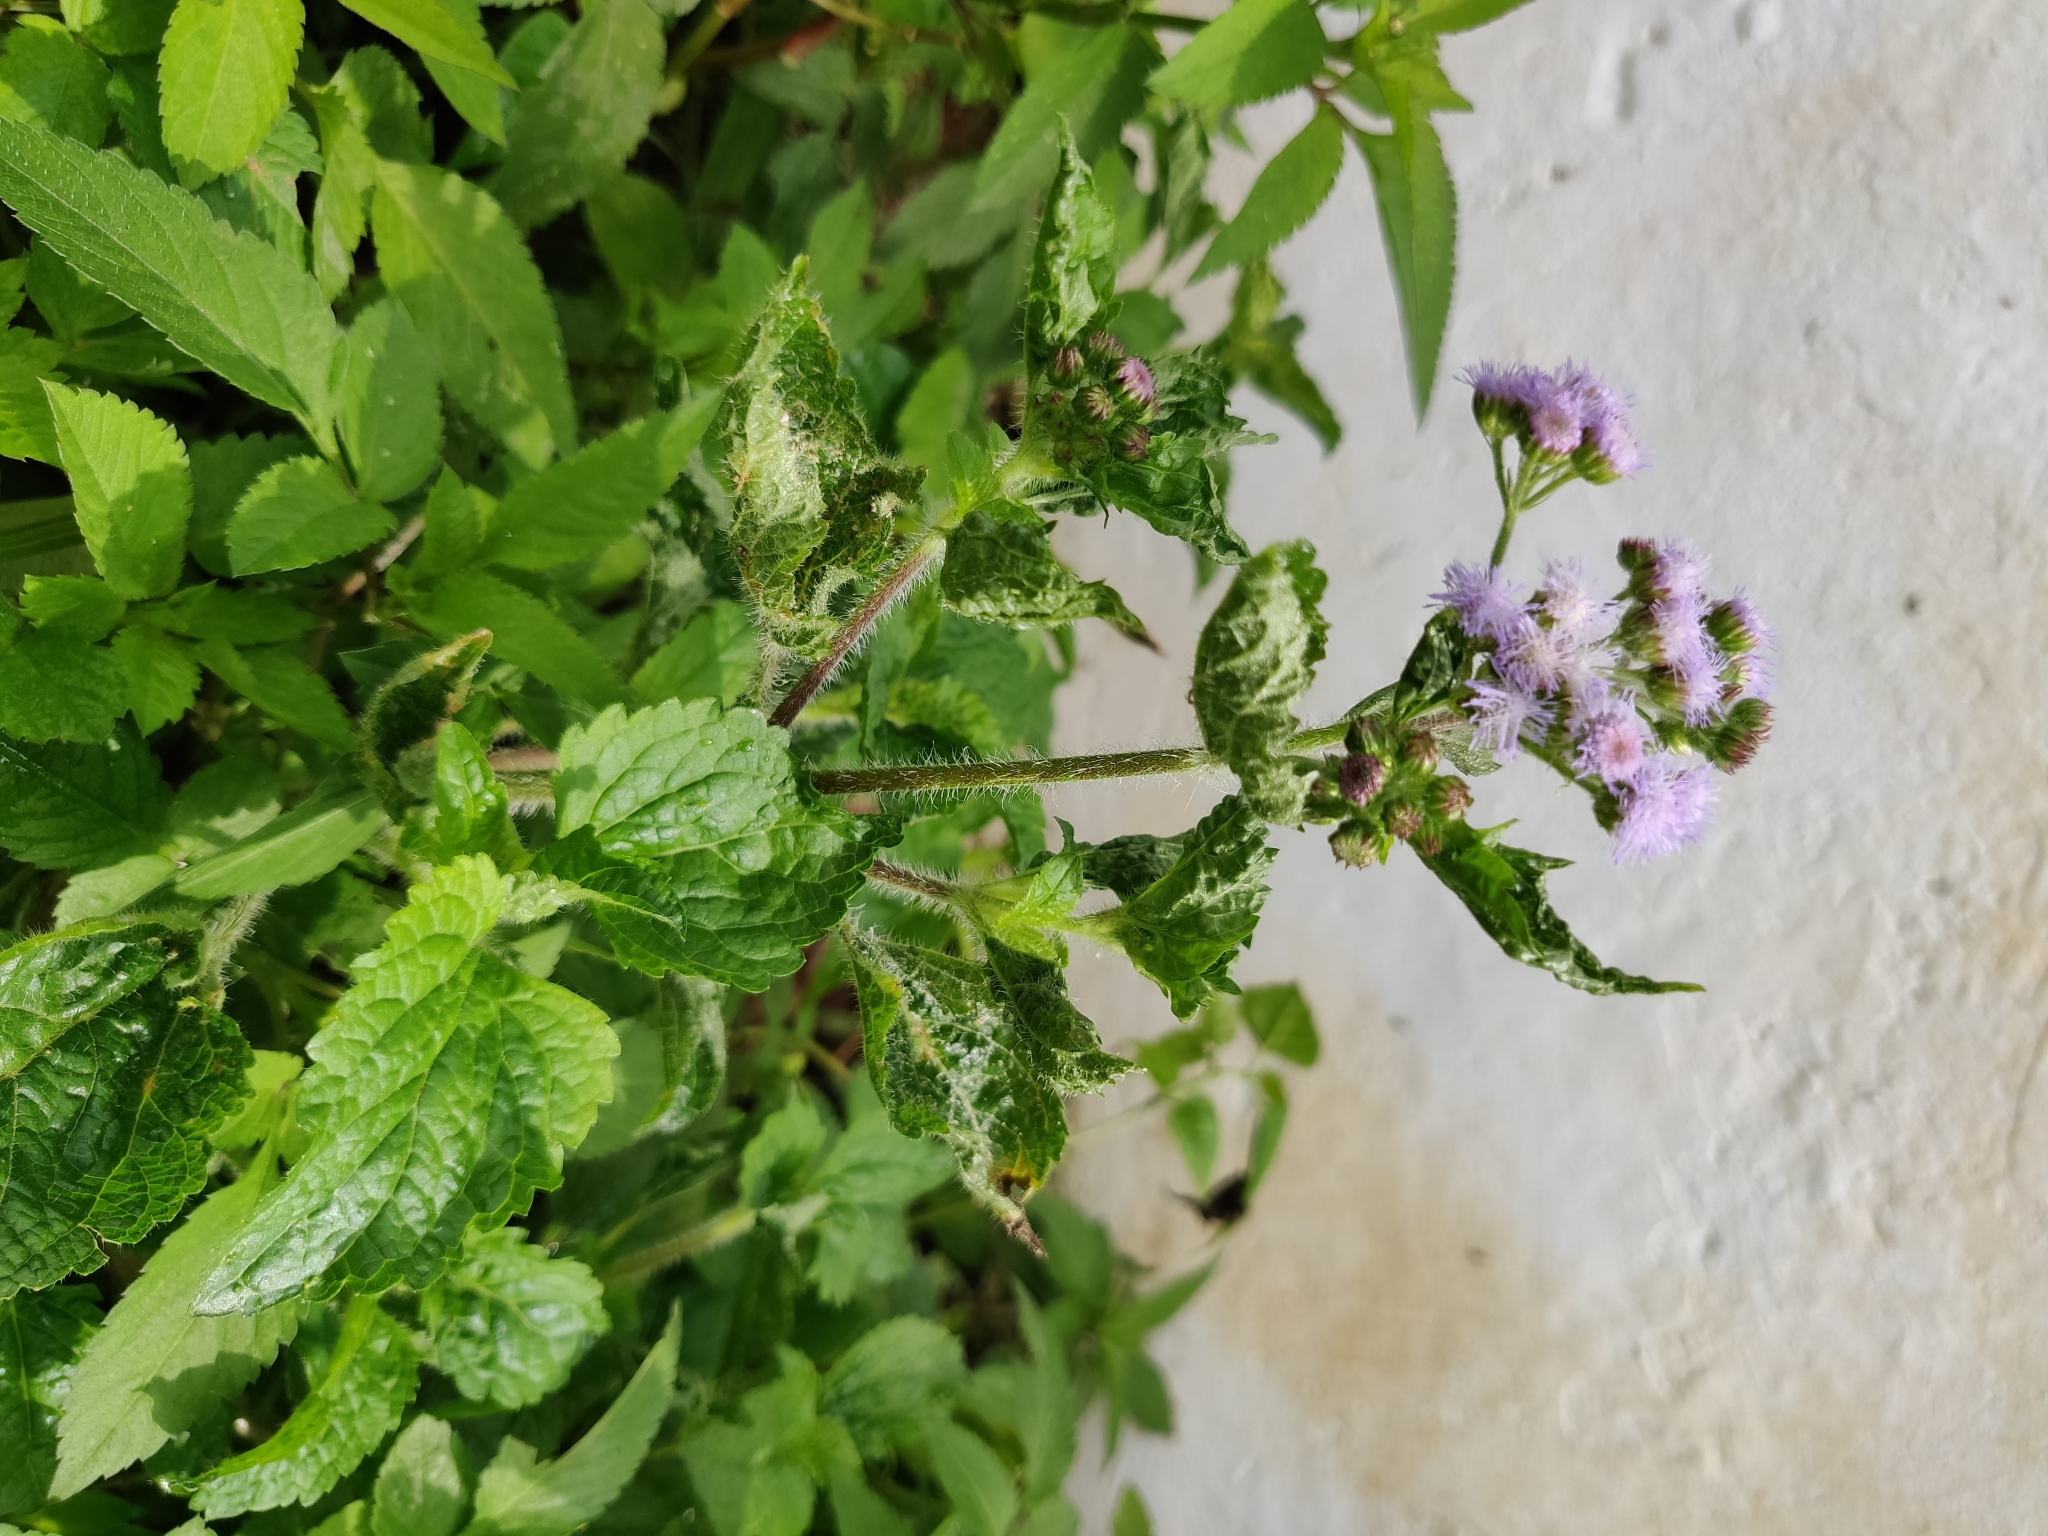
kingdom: Plantae
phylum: Tracheophyta
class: Magnoliopsida
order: Asterales
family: Asteraceae
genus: Ageratum
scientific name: Ageratum conyzoides
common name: Tropical whiteweed
